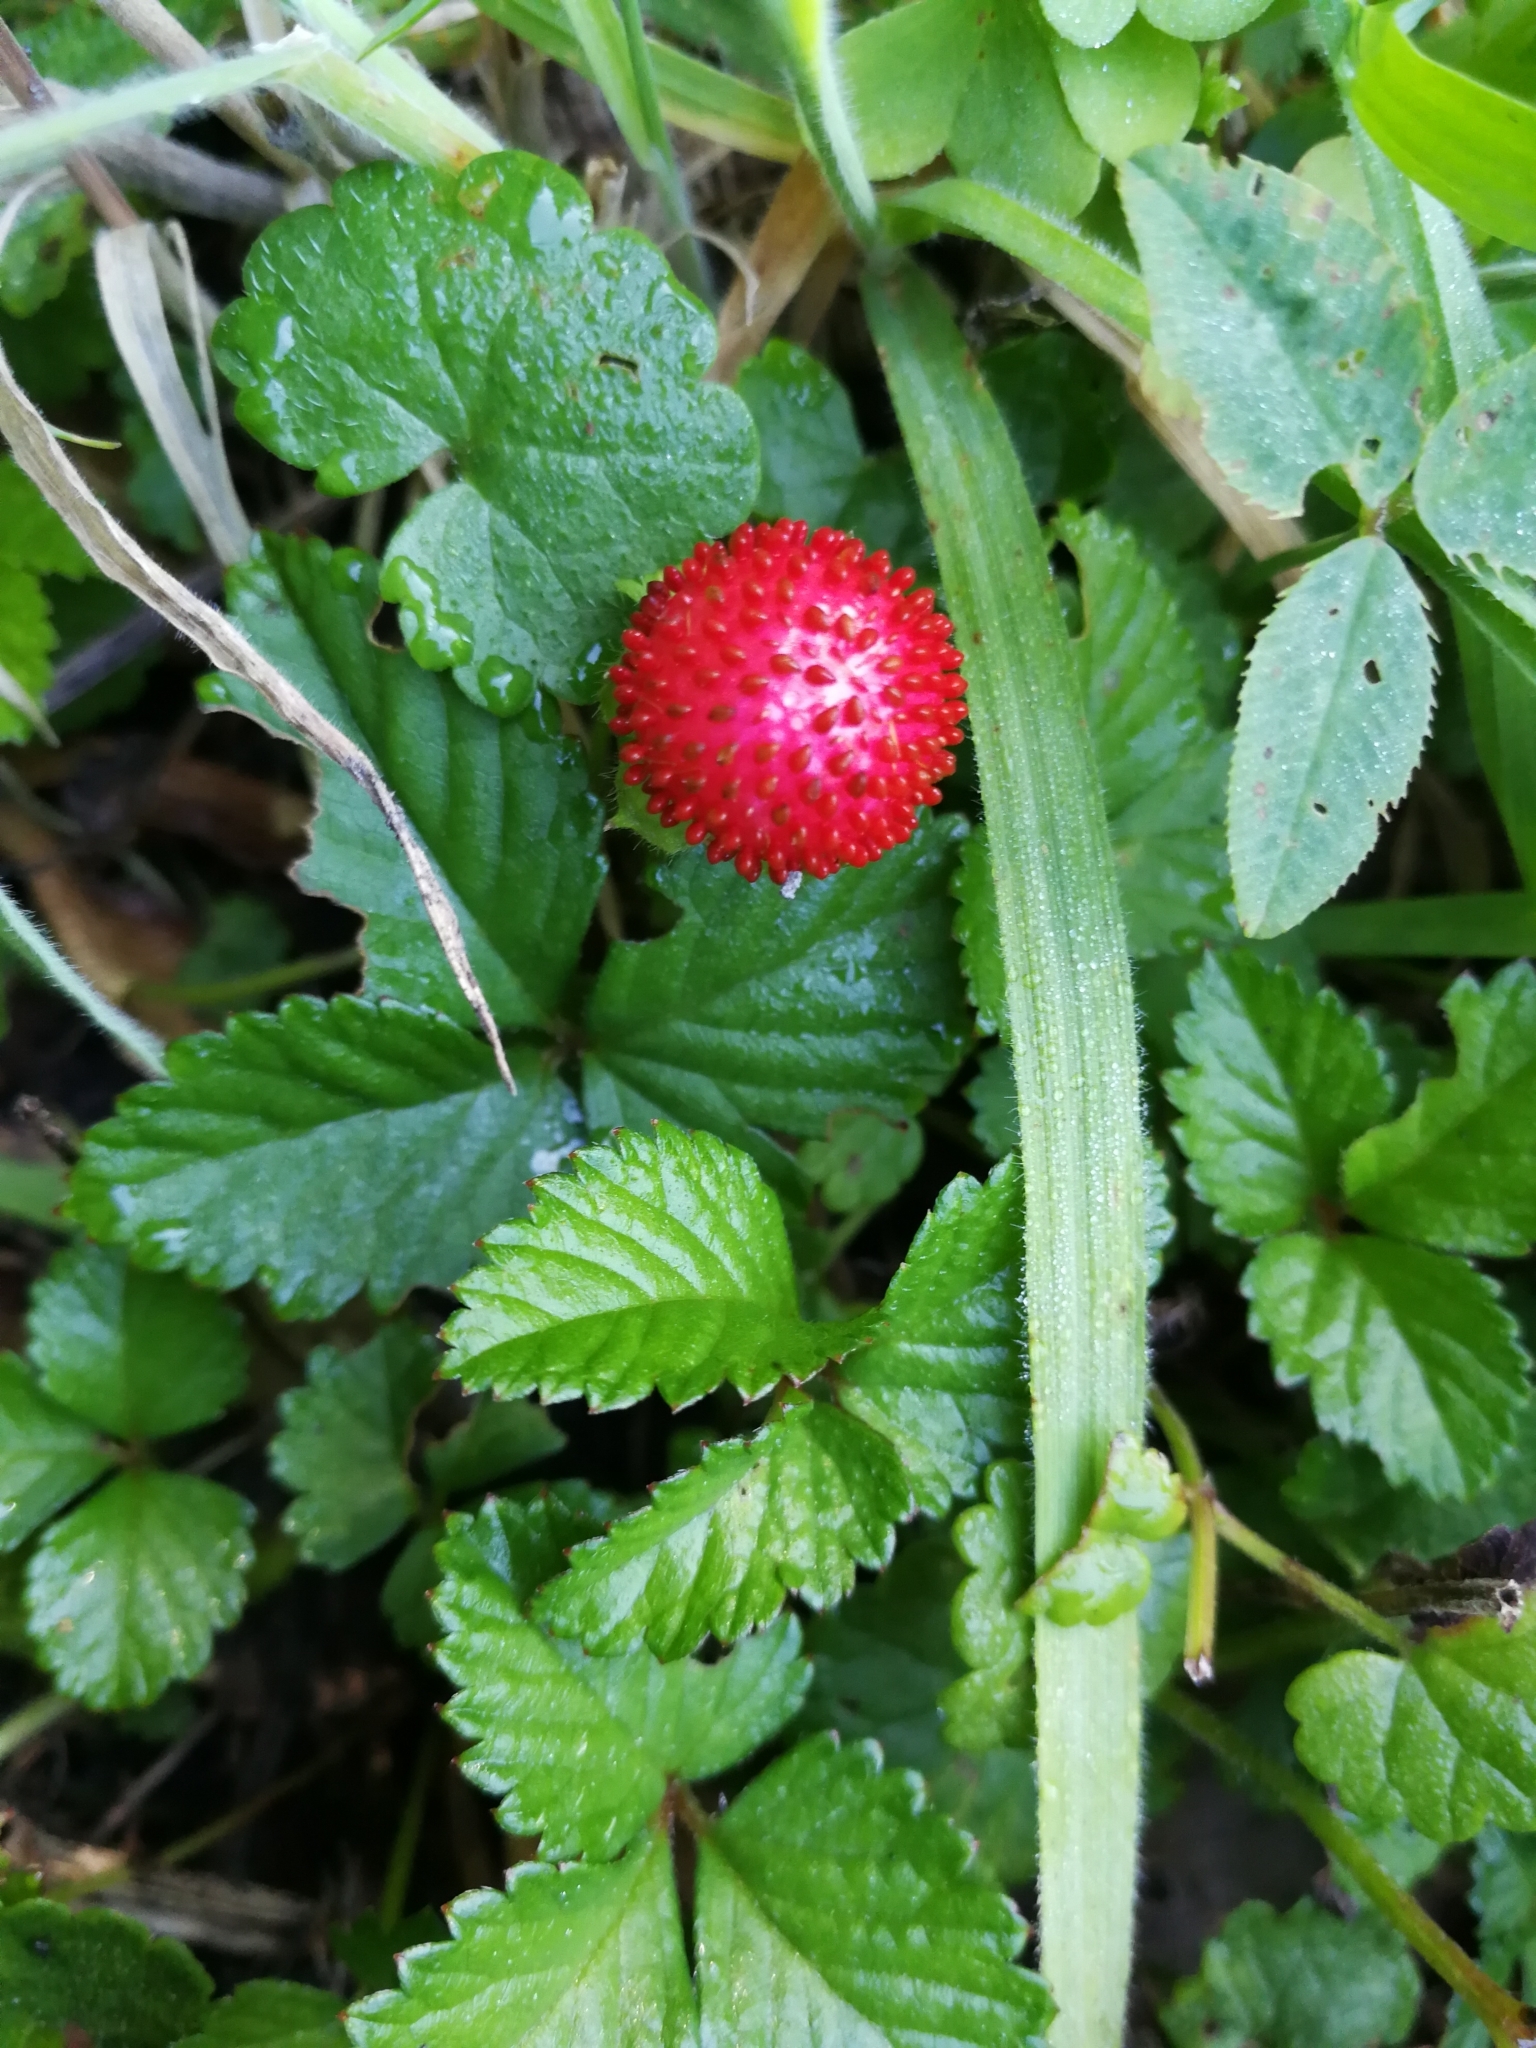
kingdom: Plantae
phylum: Tracheophyta
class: Magnoliopsida
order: Rosales
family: Rosaceae
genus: Potentilla
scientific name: Potentilla indica
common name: Yellow-flowered strawberry
